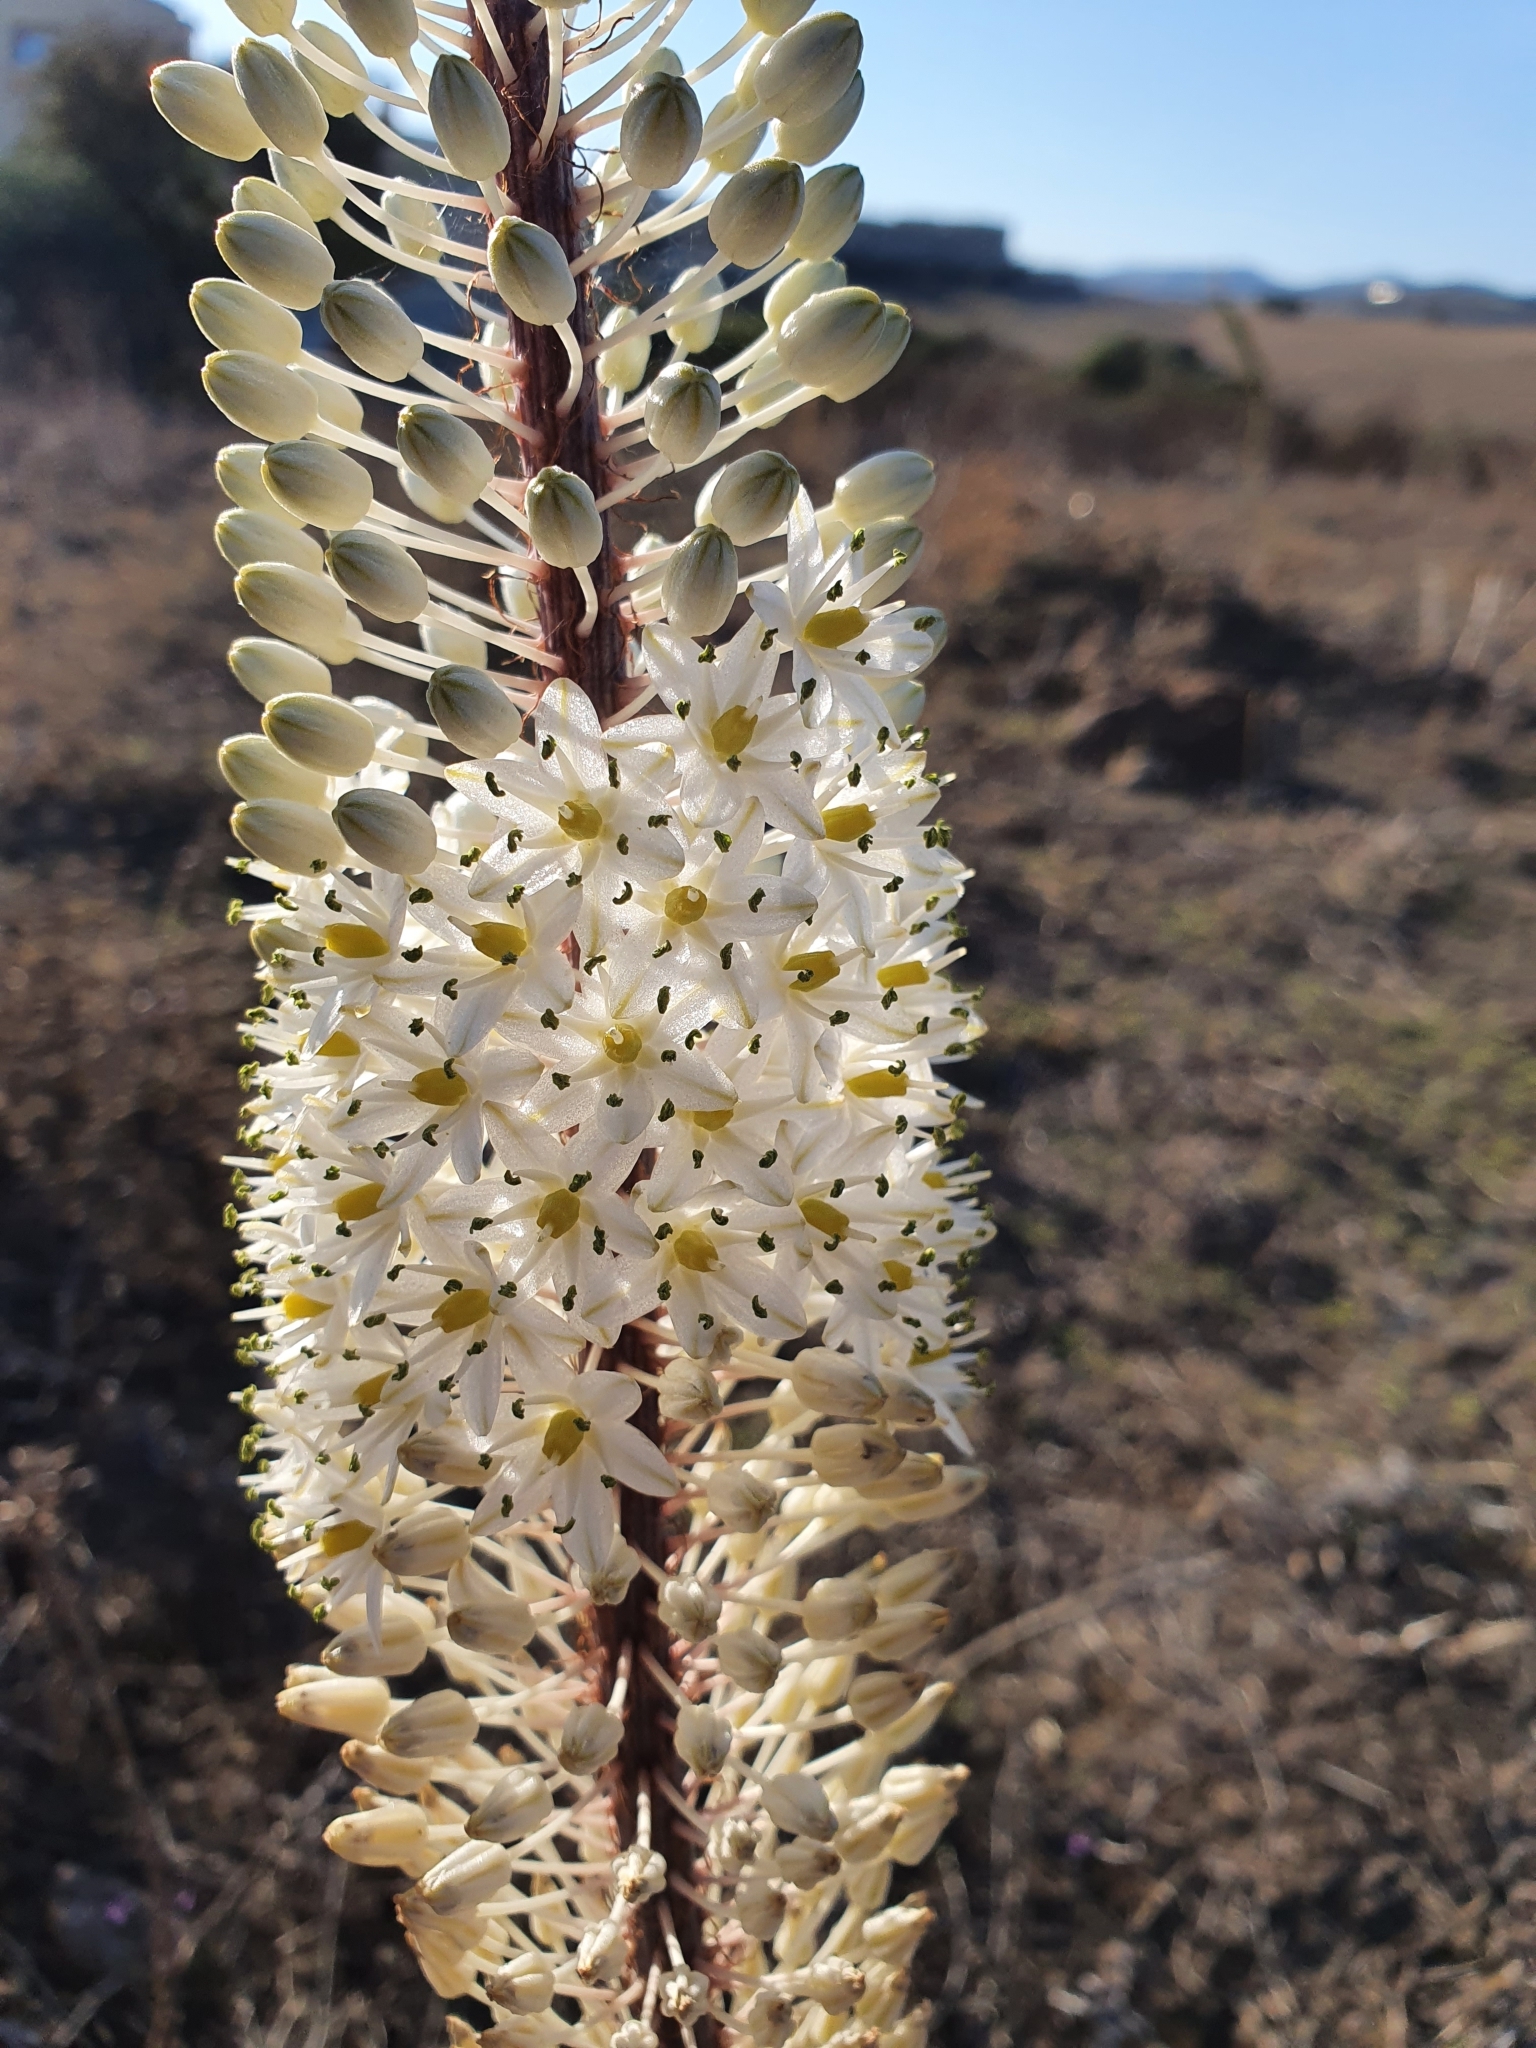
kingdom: Plantae
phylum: Tracheophyta
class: Liliopsida
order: Asparagales
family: Asparagaceae
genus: Drimia
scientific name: Drimia numidica
